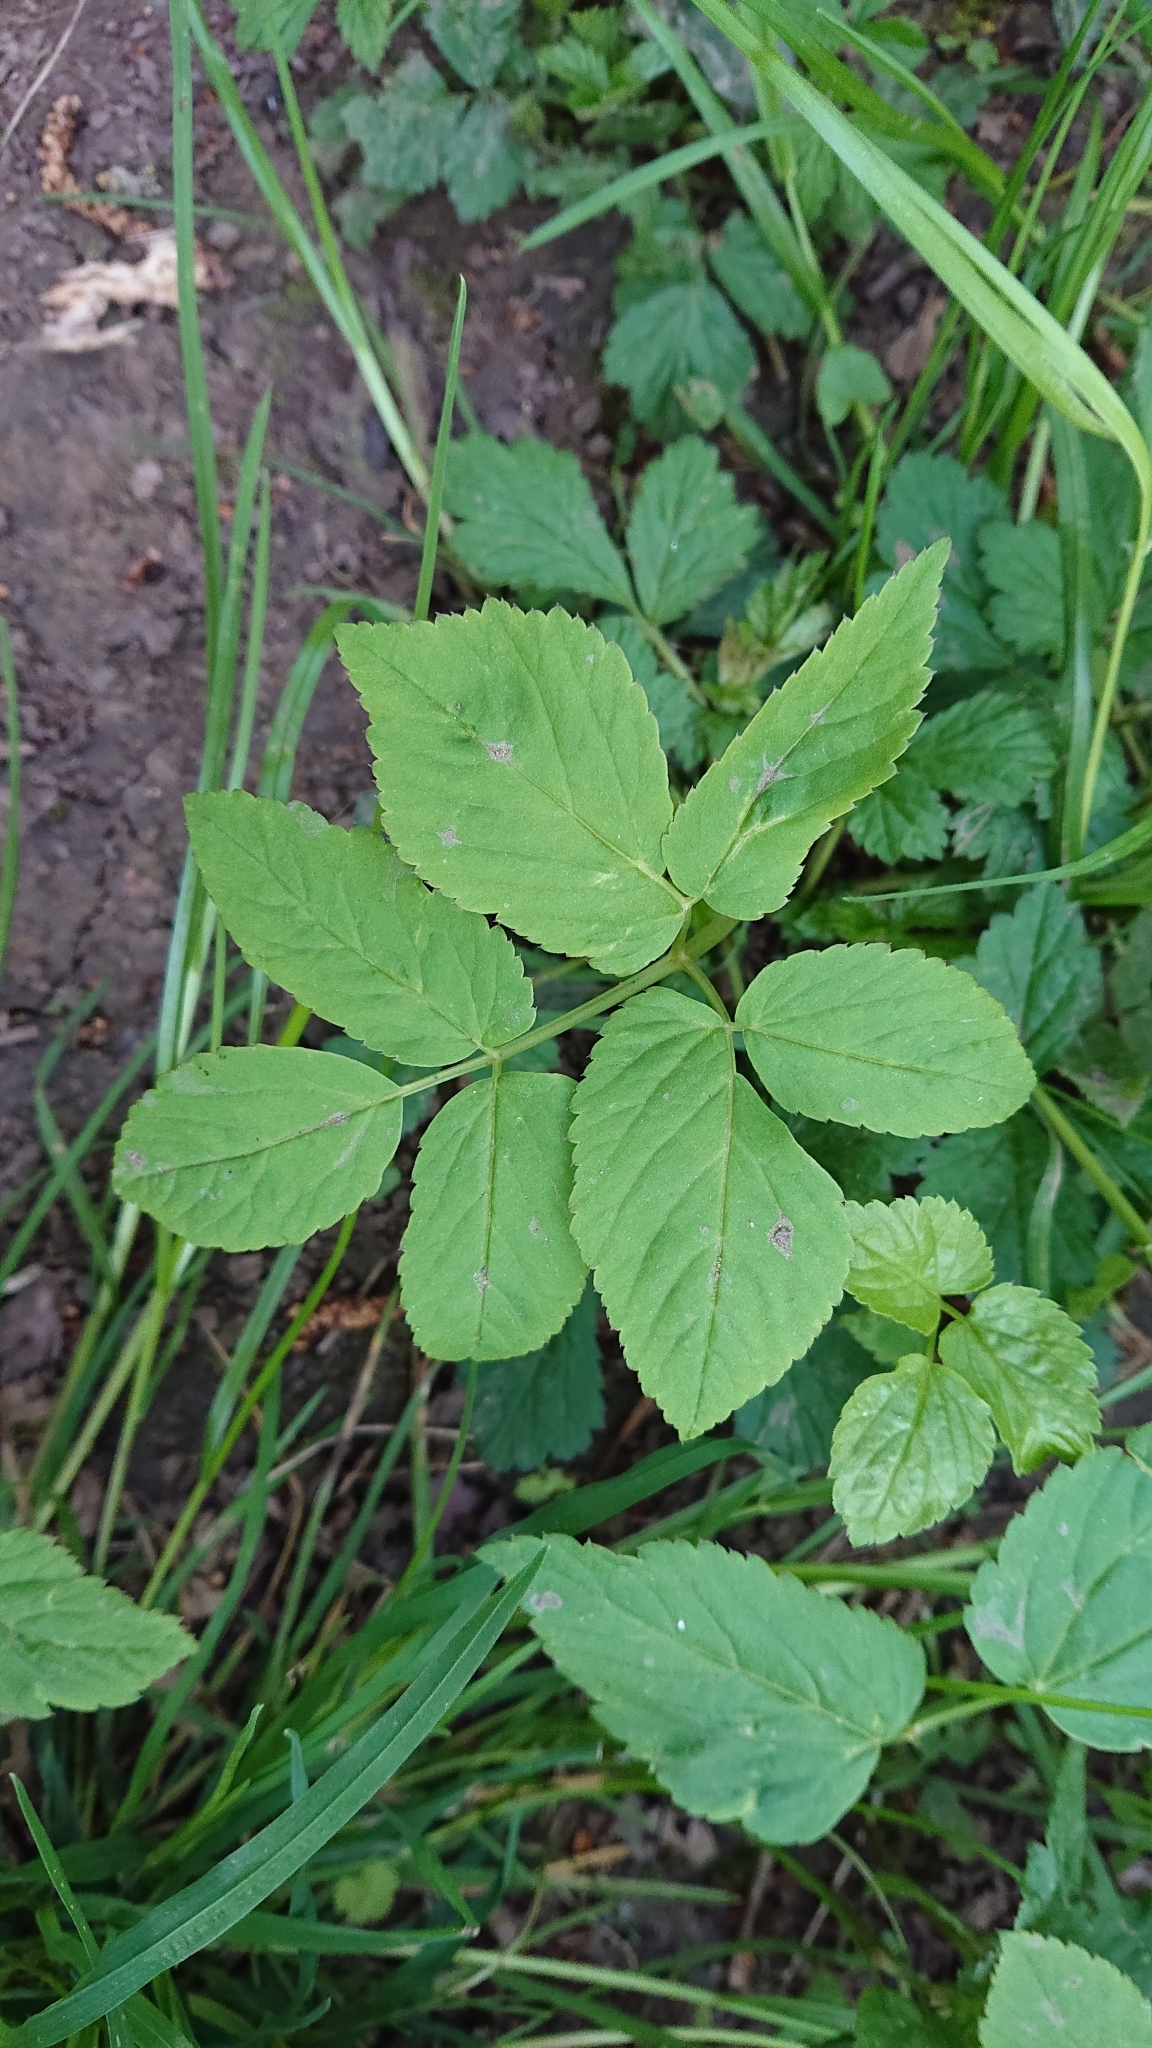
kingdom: Plantae
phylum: Tracheophyta
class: Magnoliopsida
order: Apiales
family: Apiaceae
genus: Aegopodium
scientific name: Aegopodium podagraria
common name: Ground-elder
